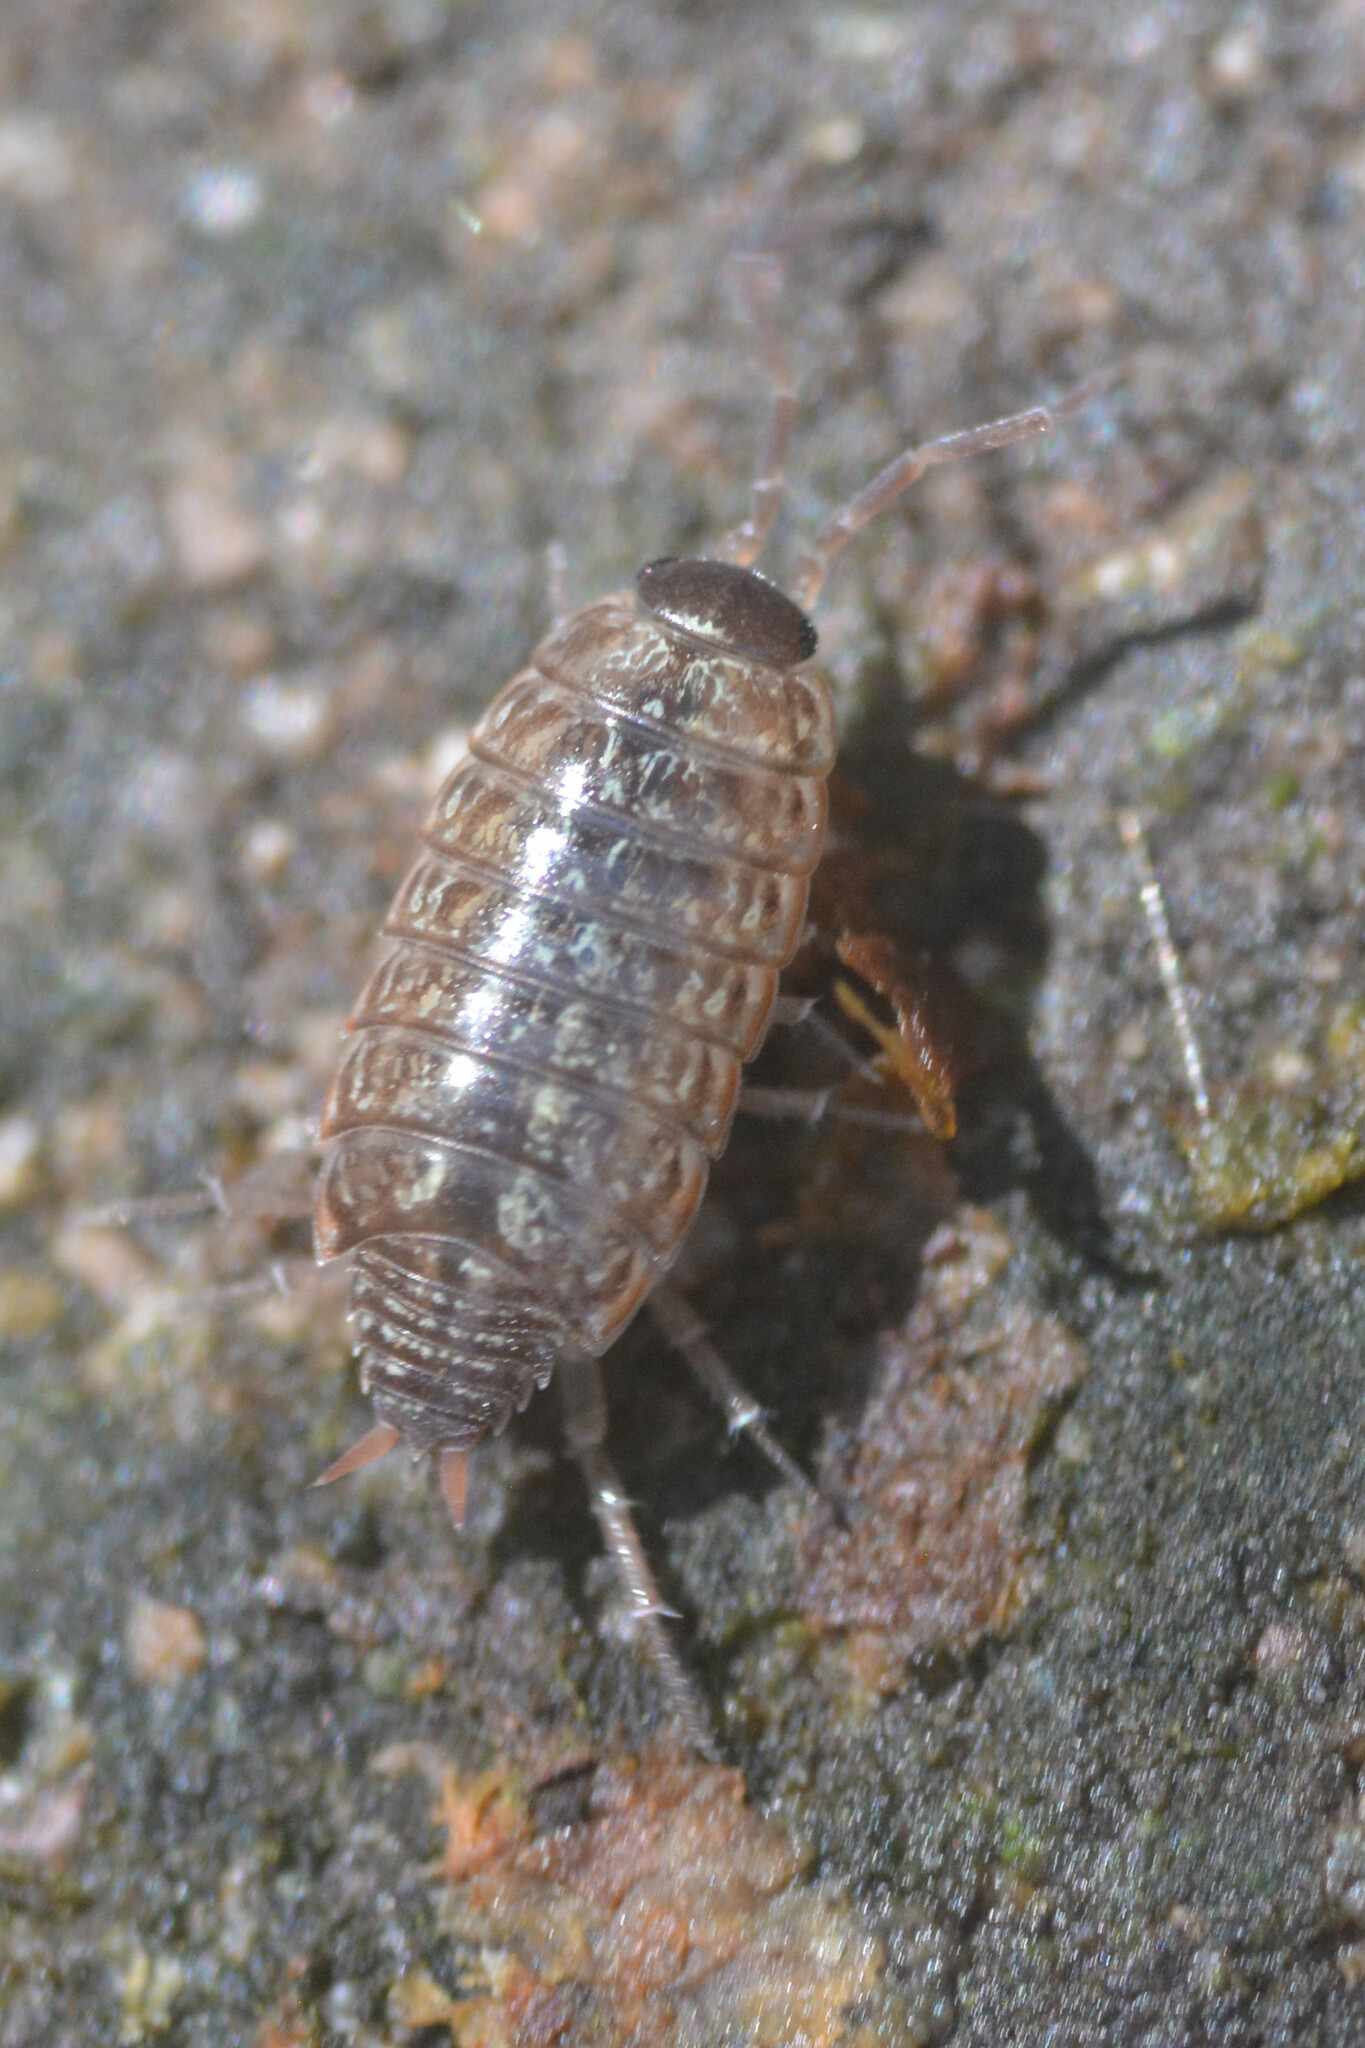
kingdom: Animalia
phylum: Arthropoda
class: Malacostraca
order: Isopoda
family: Philosciidae
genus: Philoscia
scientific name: Philoscia muscorum
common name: Common striped woodlouse
